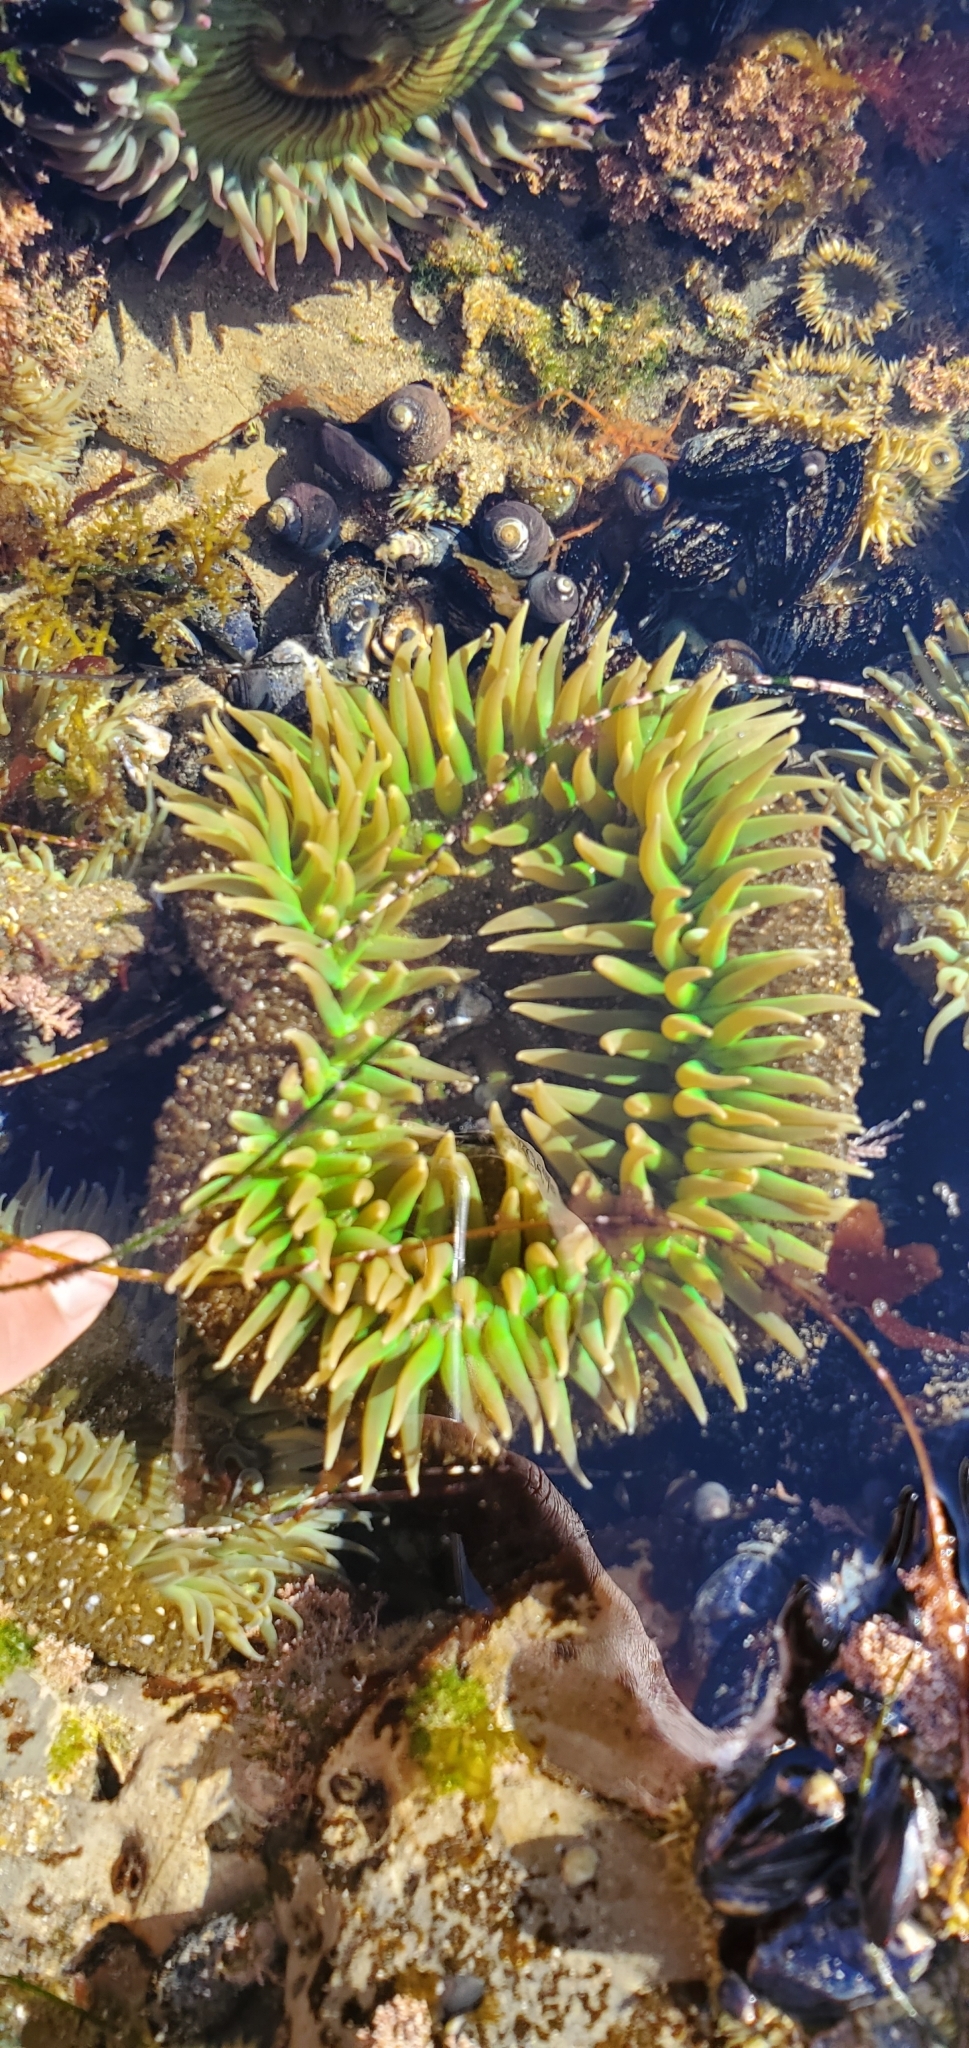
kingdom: Animalia
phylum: Cnidaria
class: Anthozoa
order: Actiniaria
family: Actiniidae
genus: Anthopleura
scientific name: Anthopleura xanthogrammica
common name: Giant green anemone
